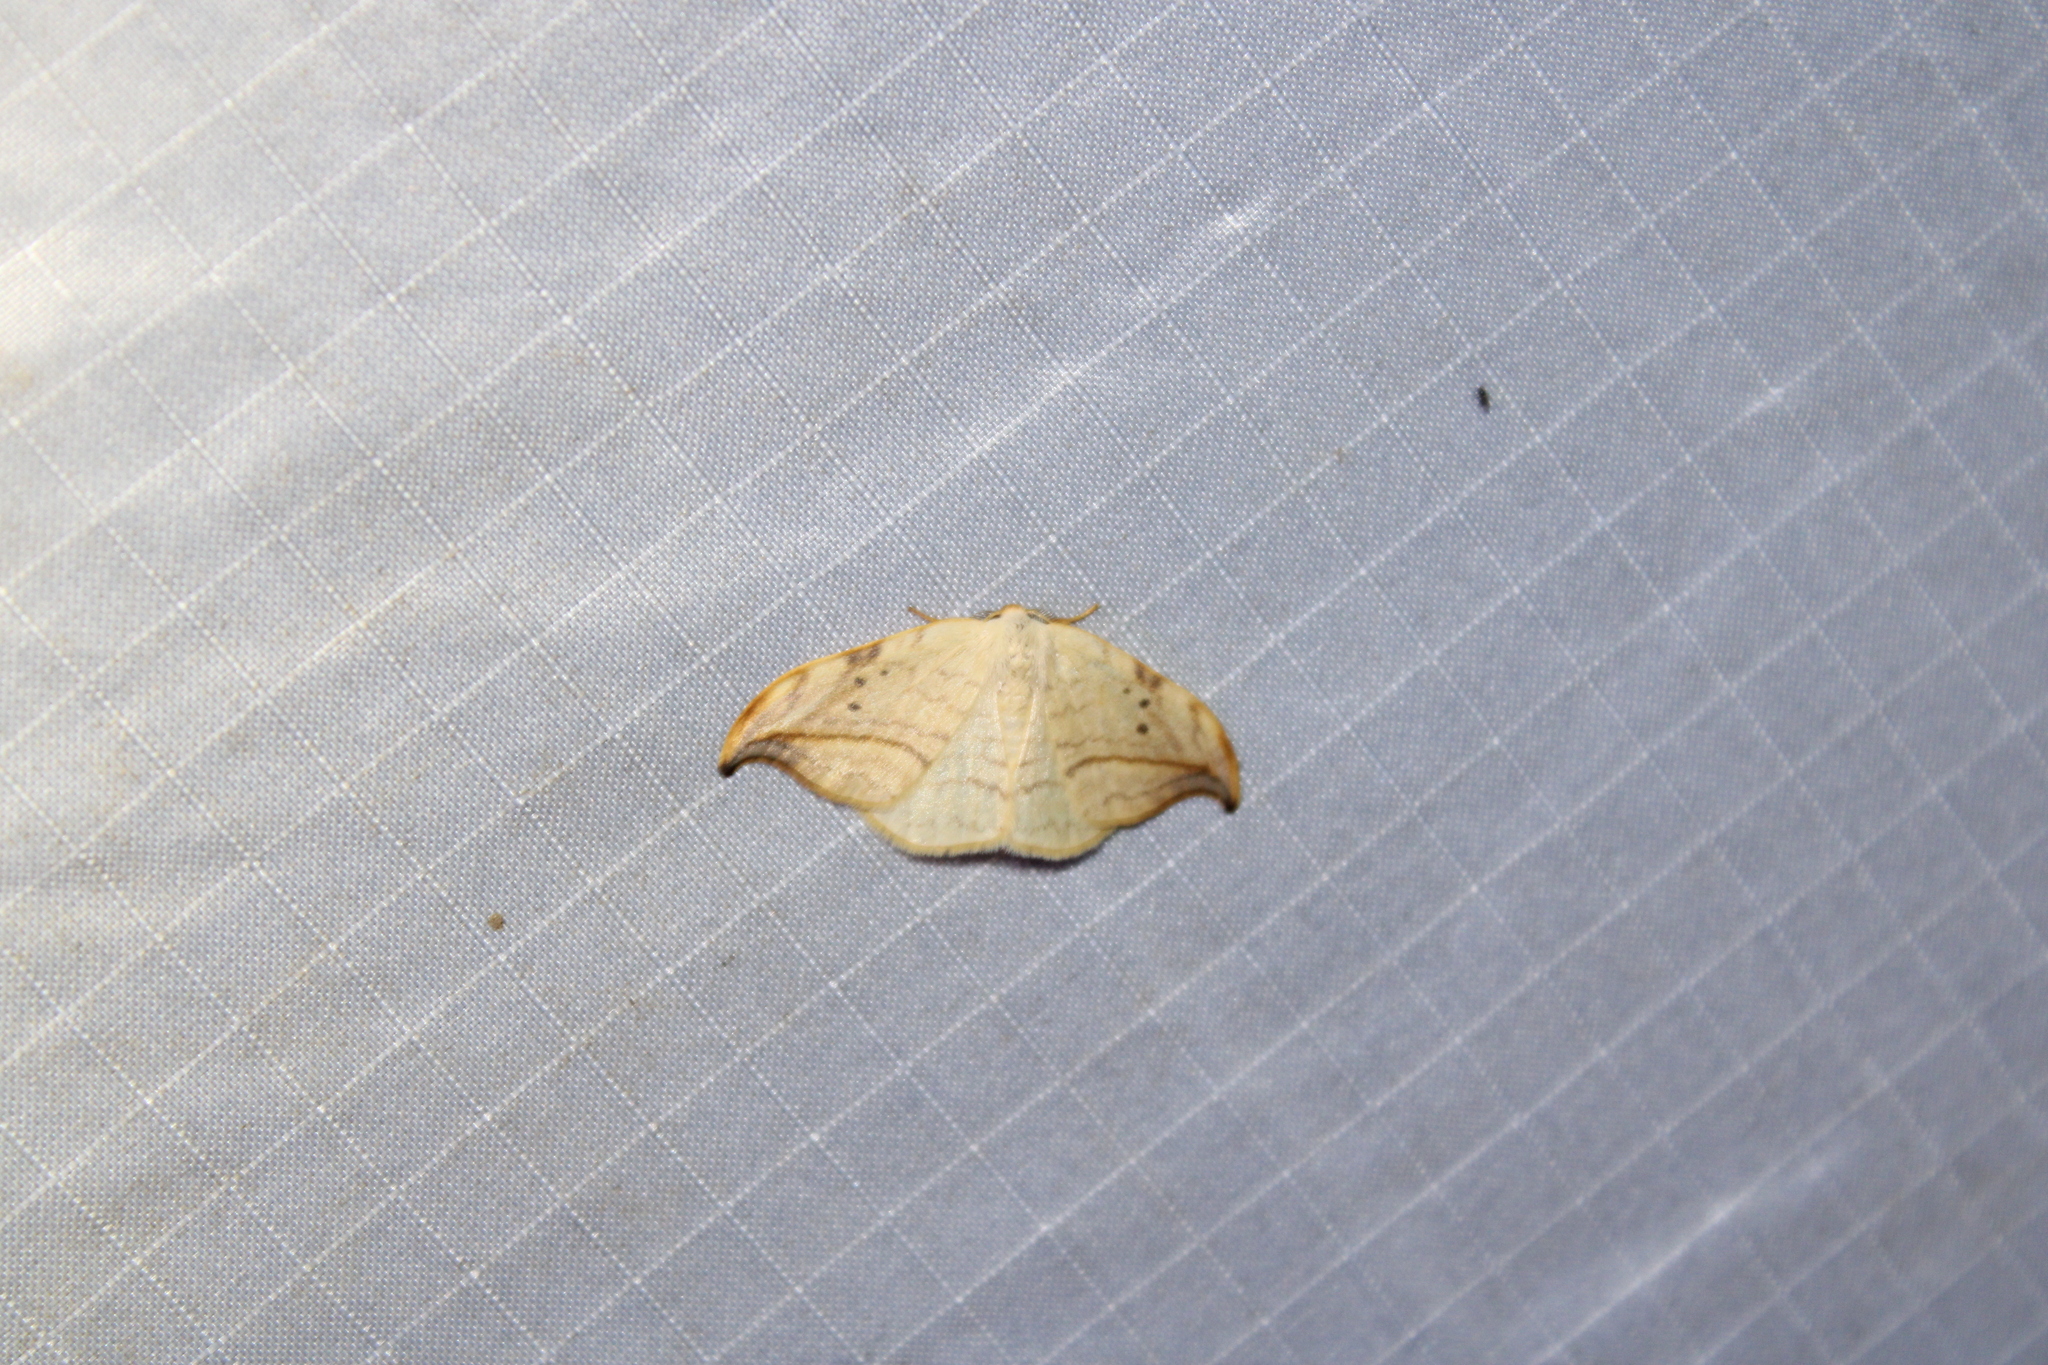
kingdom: Animalia
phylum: Arthropoda
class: Insecta
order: Lepidoptera
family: Drepanidae
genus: Drepana
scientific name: Drepana arcuata
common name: Arched hooktip moth
